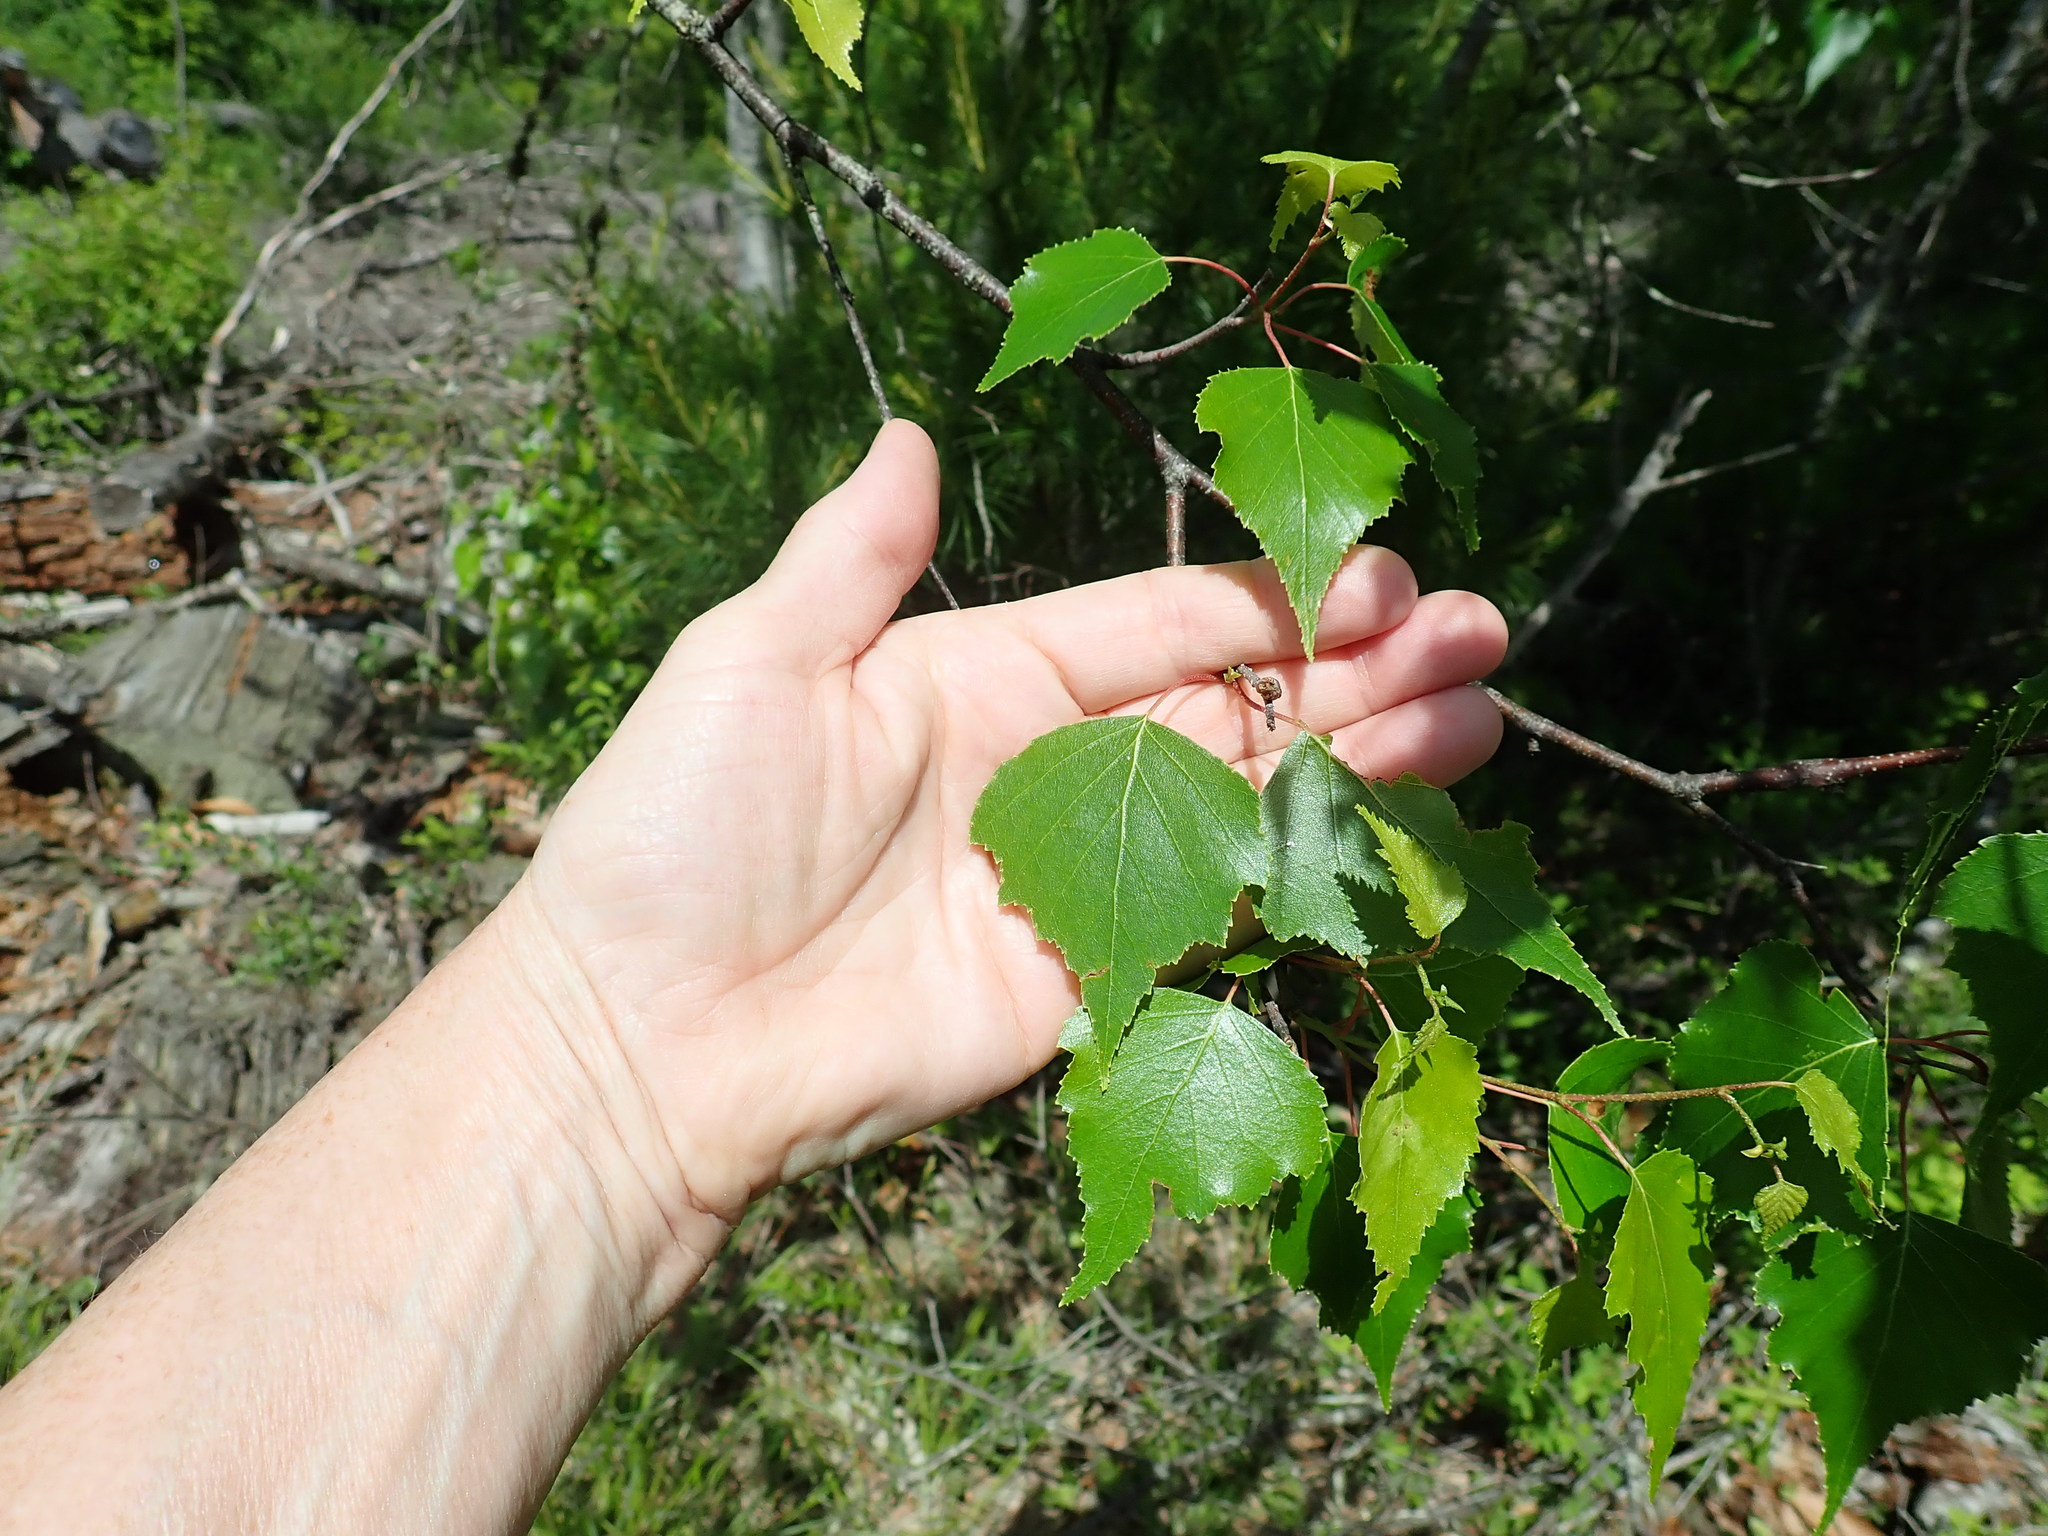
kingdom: Plantae
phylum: Tracheophyta
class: Magnoliopsida
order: Fagales
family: Betulaceae
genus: Betula
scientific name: Betula populifolia
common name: Fire birch
